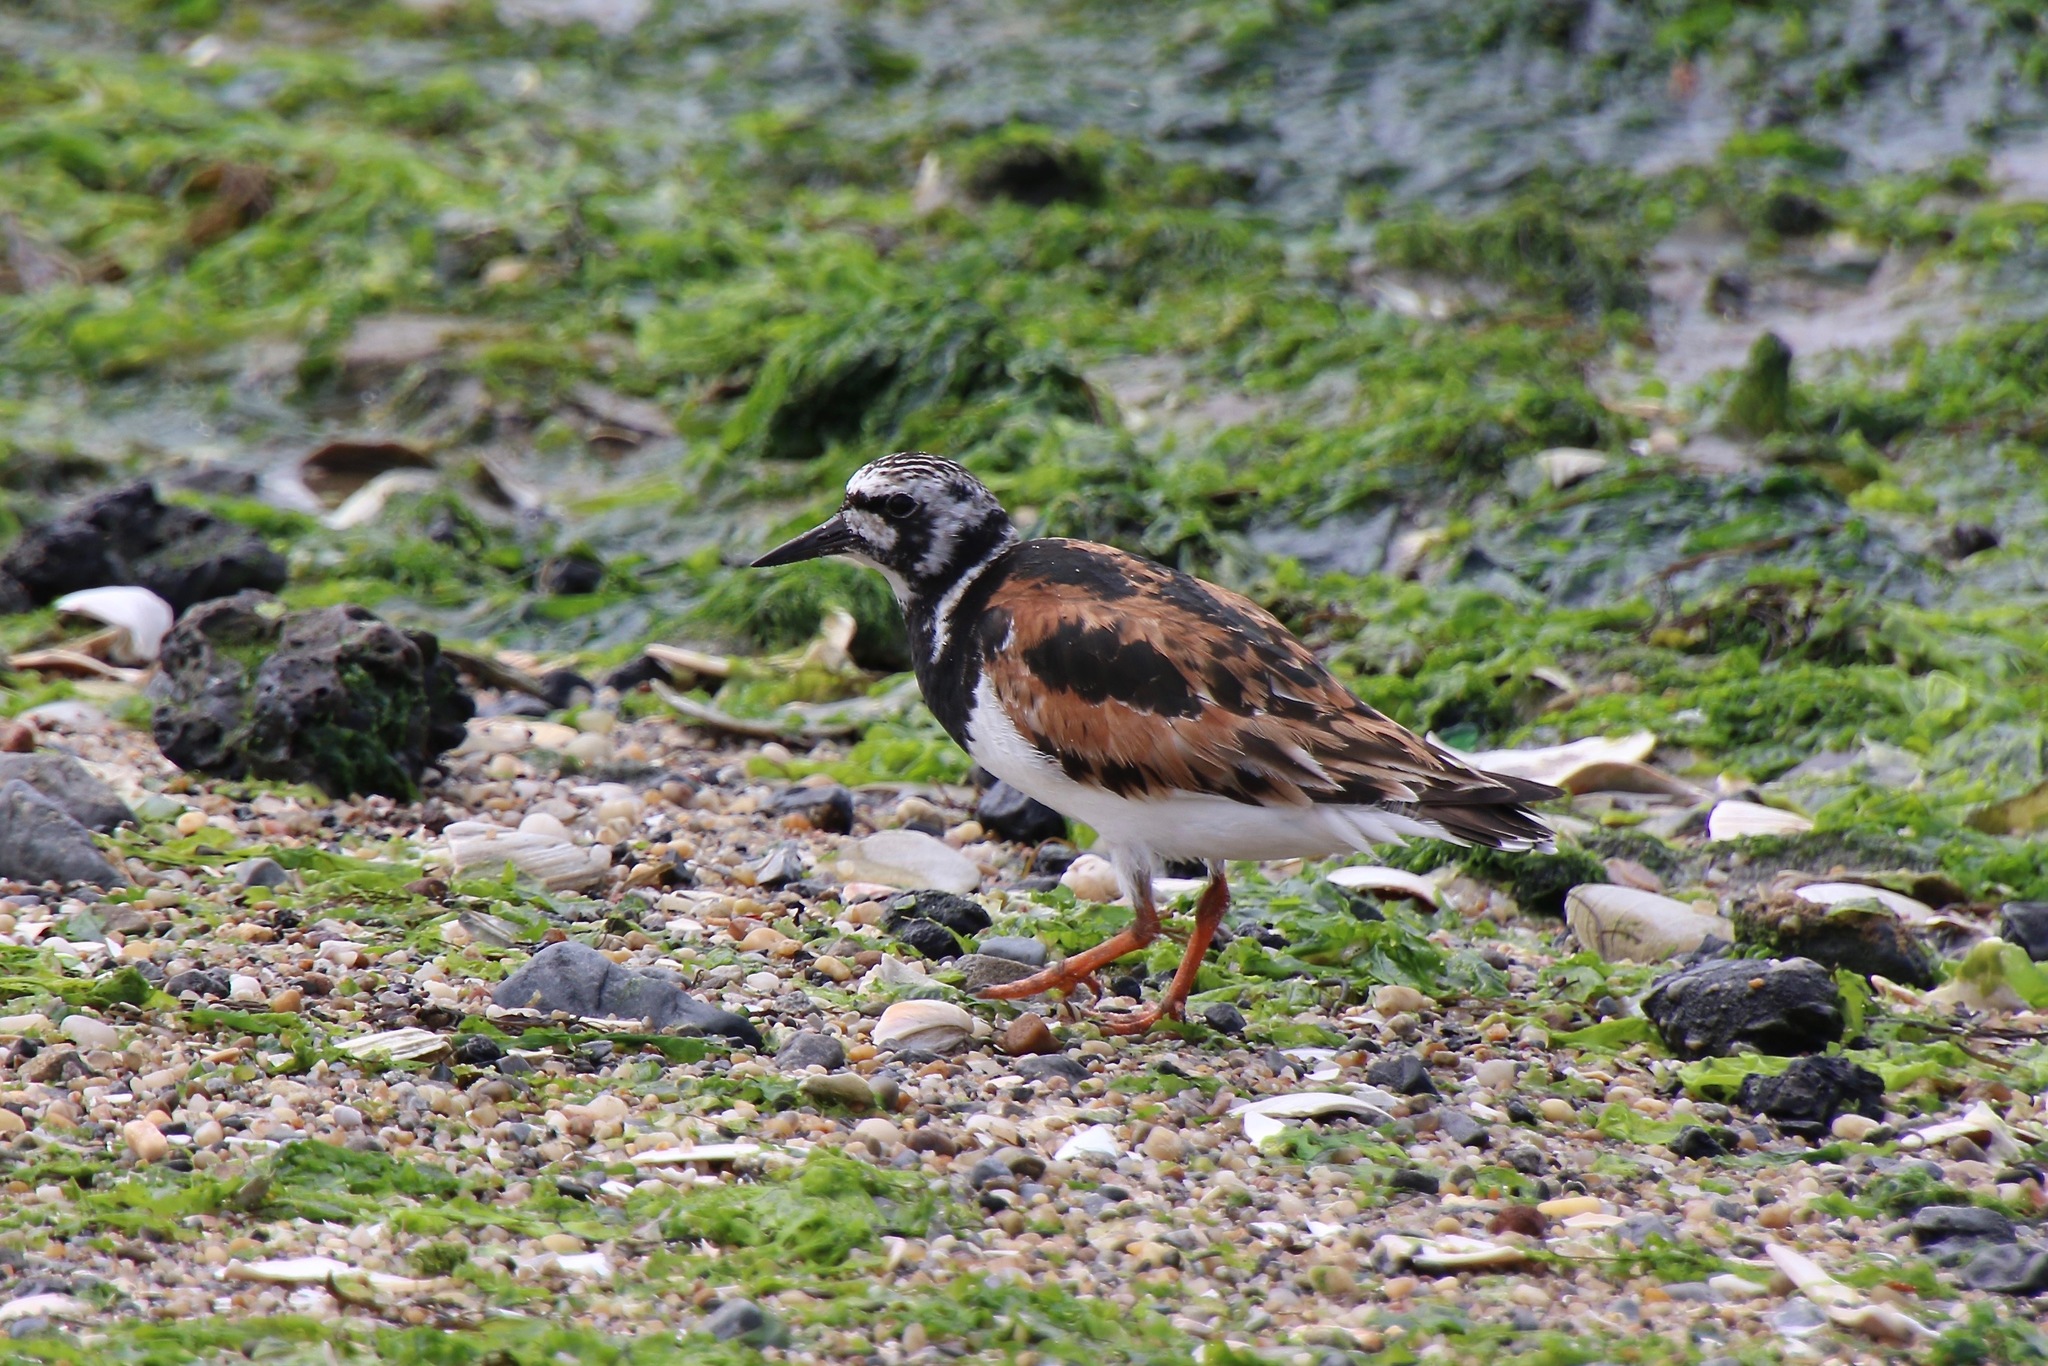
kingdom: Animalia
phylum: Chordata
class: Aves
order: Charadriiformes
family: Scolopacidae
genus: Arenaria
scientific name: Arenaria interpres
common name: Ruddy turnstone
